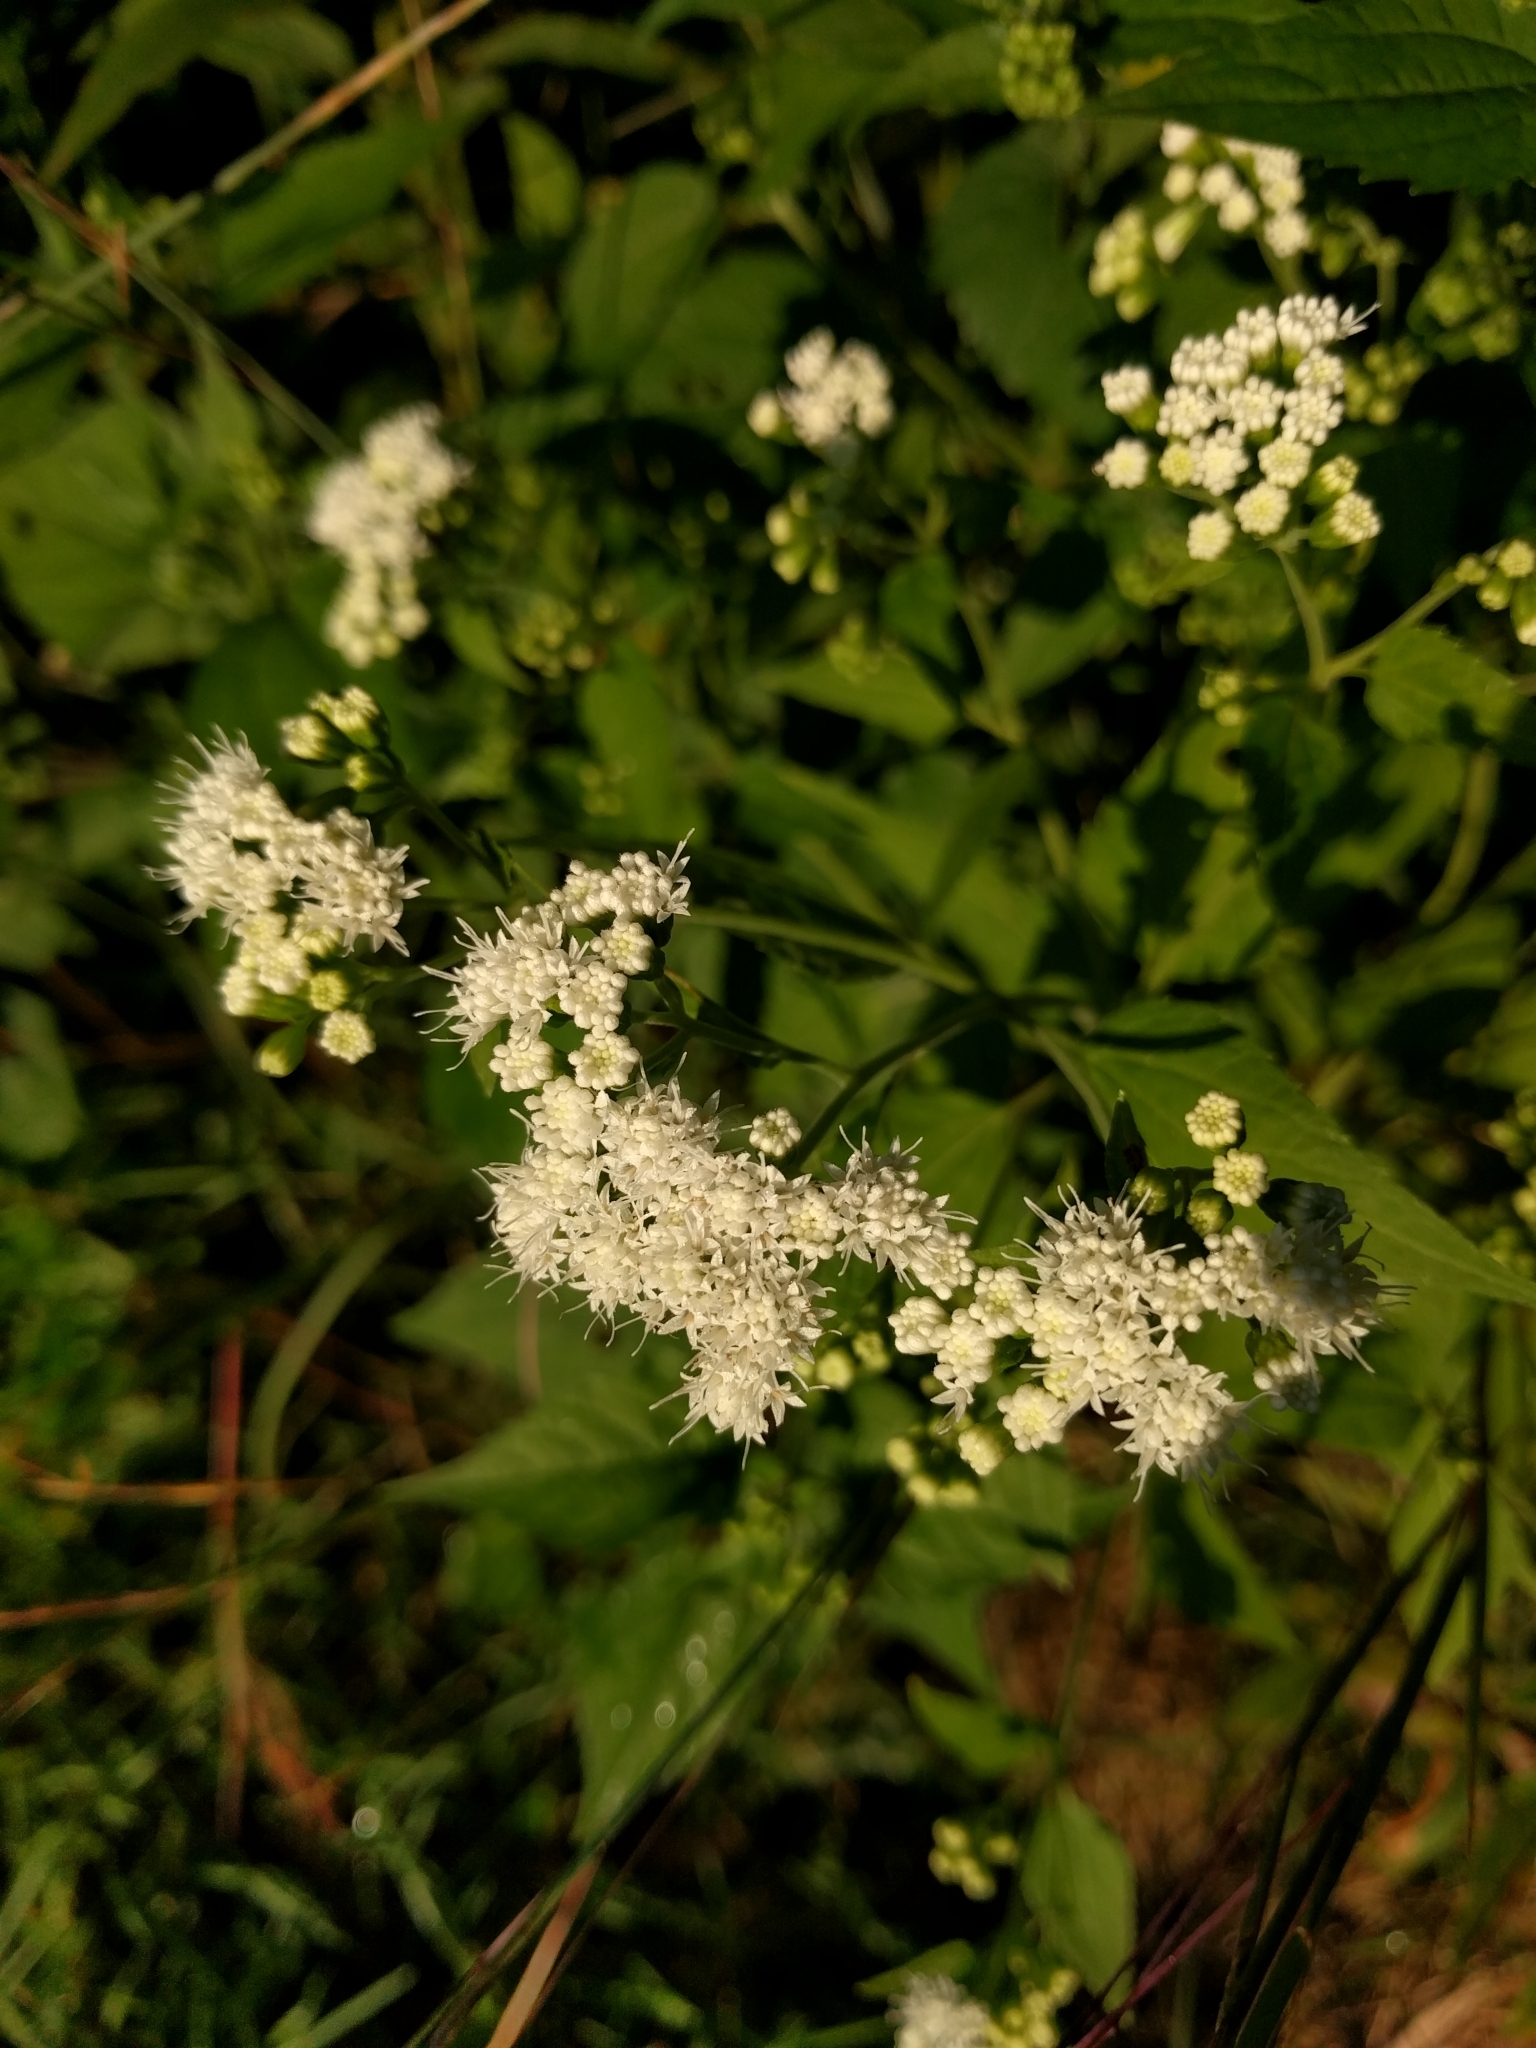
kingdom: Plantae
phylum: Tracheophyta
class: Magnoliopsida
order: Asterales
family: Asteraceae
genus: Ageratina
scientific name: Ageratina altissima
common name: White snakeroot
